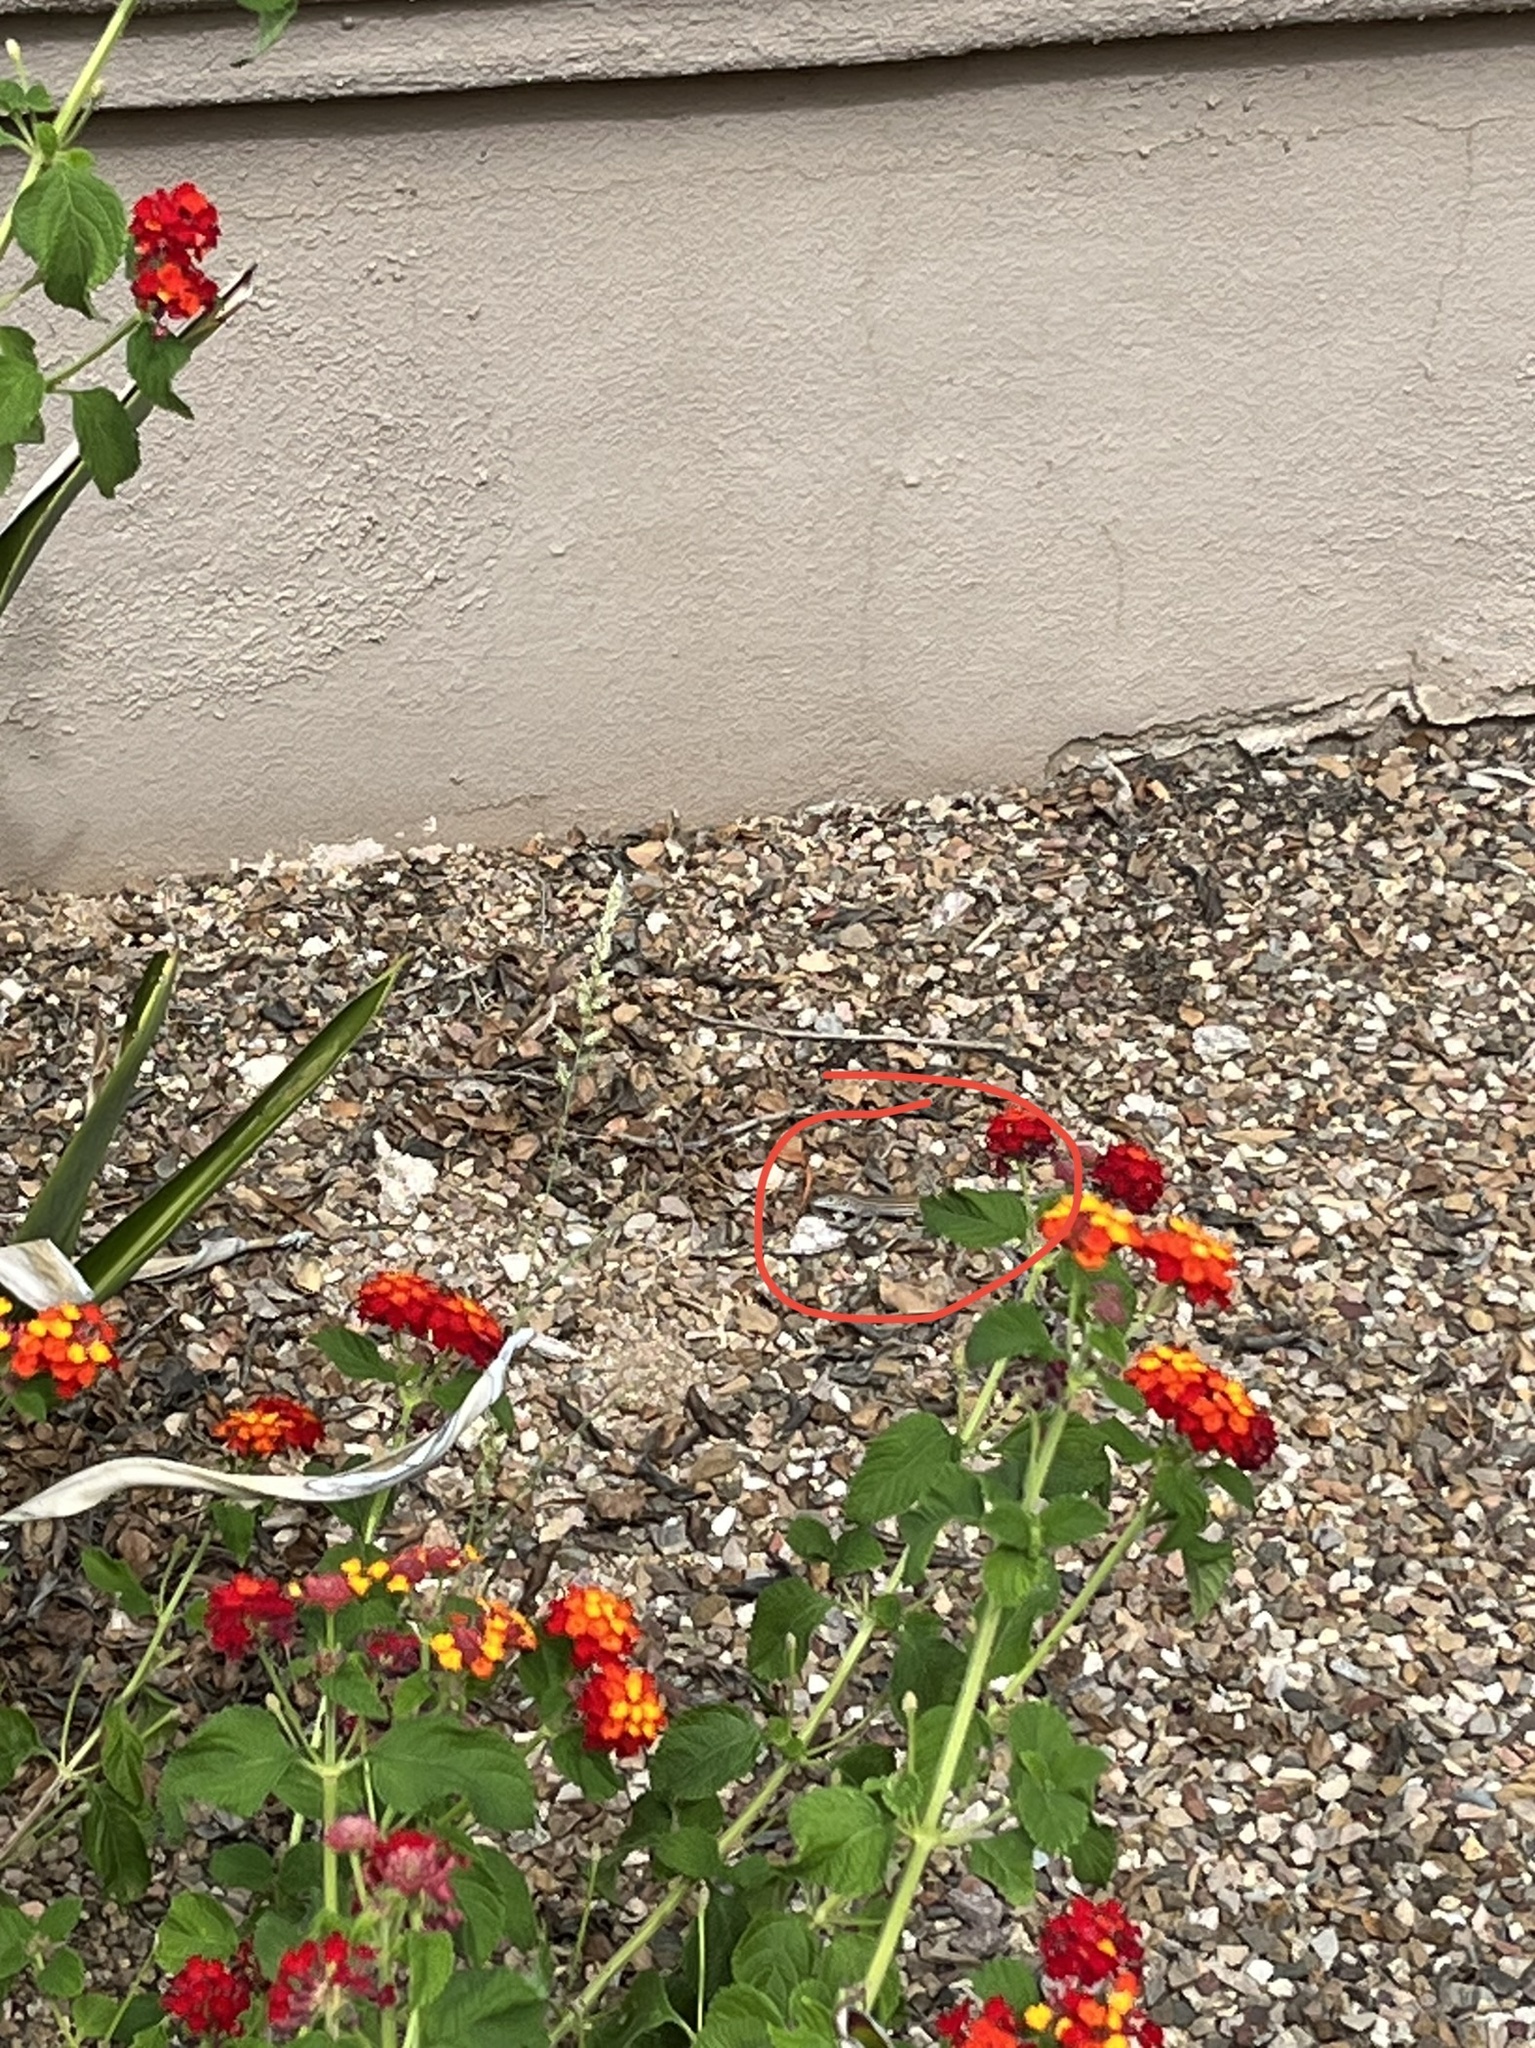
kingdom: Animalia
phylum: Chordata
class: Squamata
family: Teiidae
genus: Aspidoscelis
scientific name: Aspidoscelis sonorae
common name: Sonoran spotted whiptail
